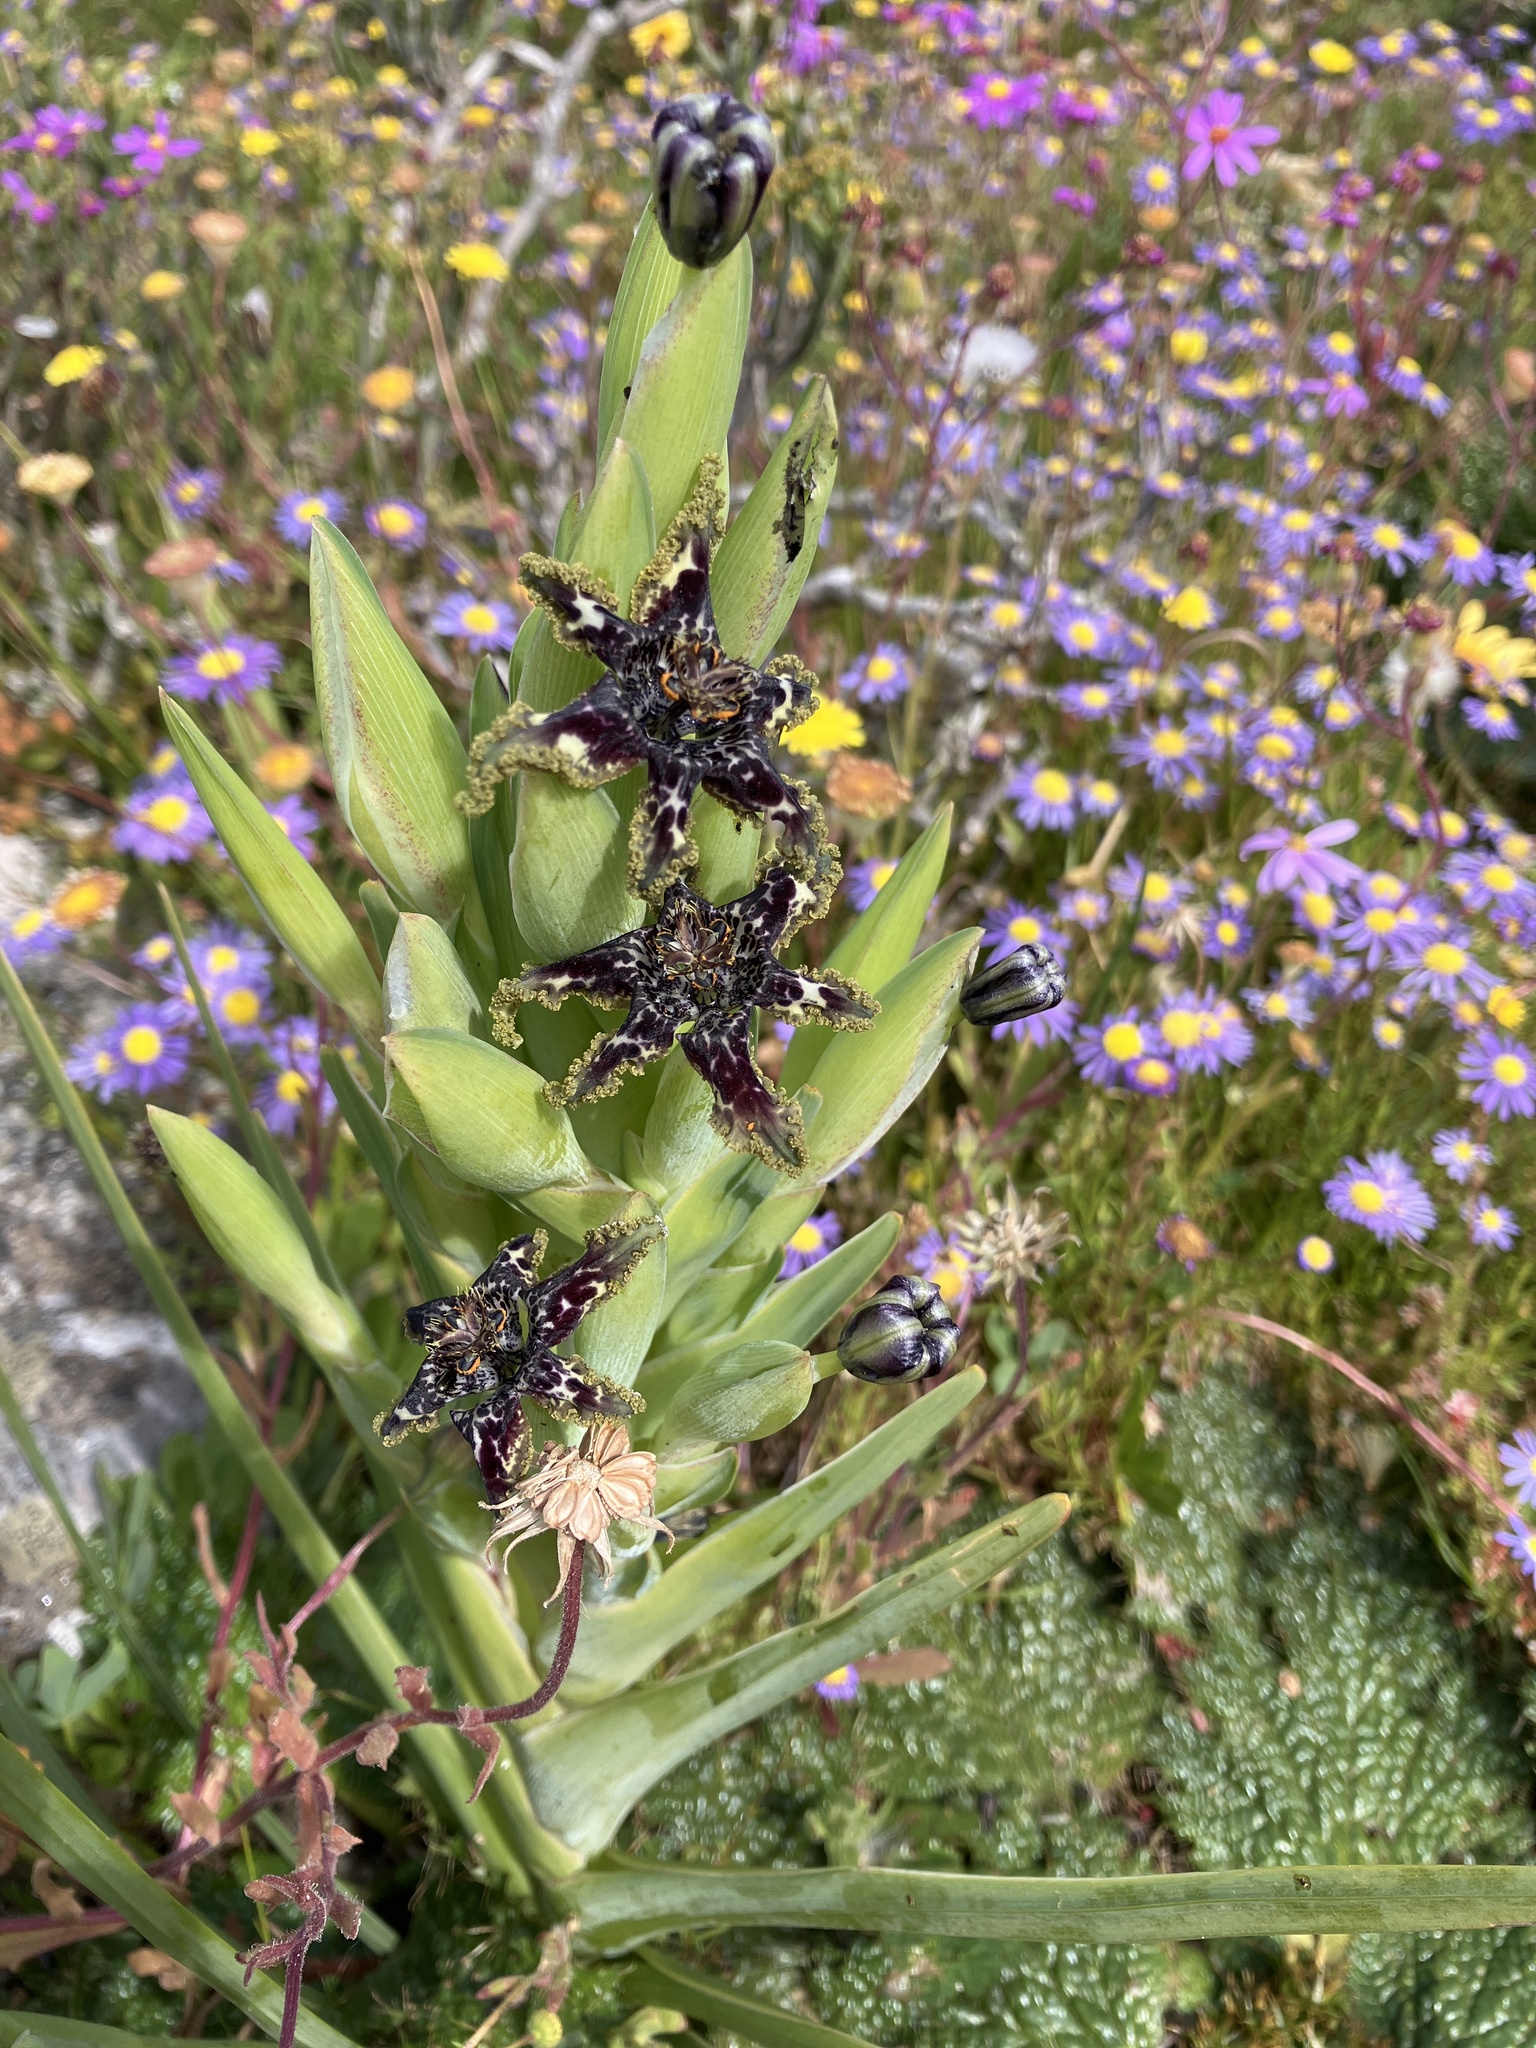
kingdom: Plantae
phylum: Tracheophyta
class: Liliopsida
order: Asparagales
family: Iridaceae
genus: Ferraria
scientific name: Ferraria crispa
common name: Black-flag
